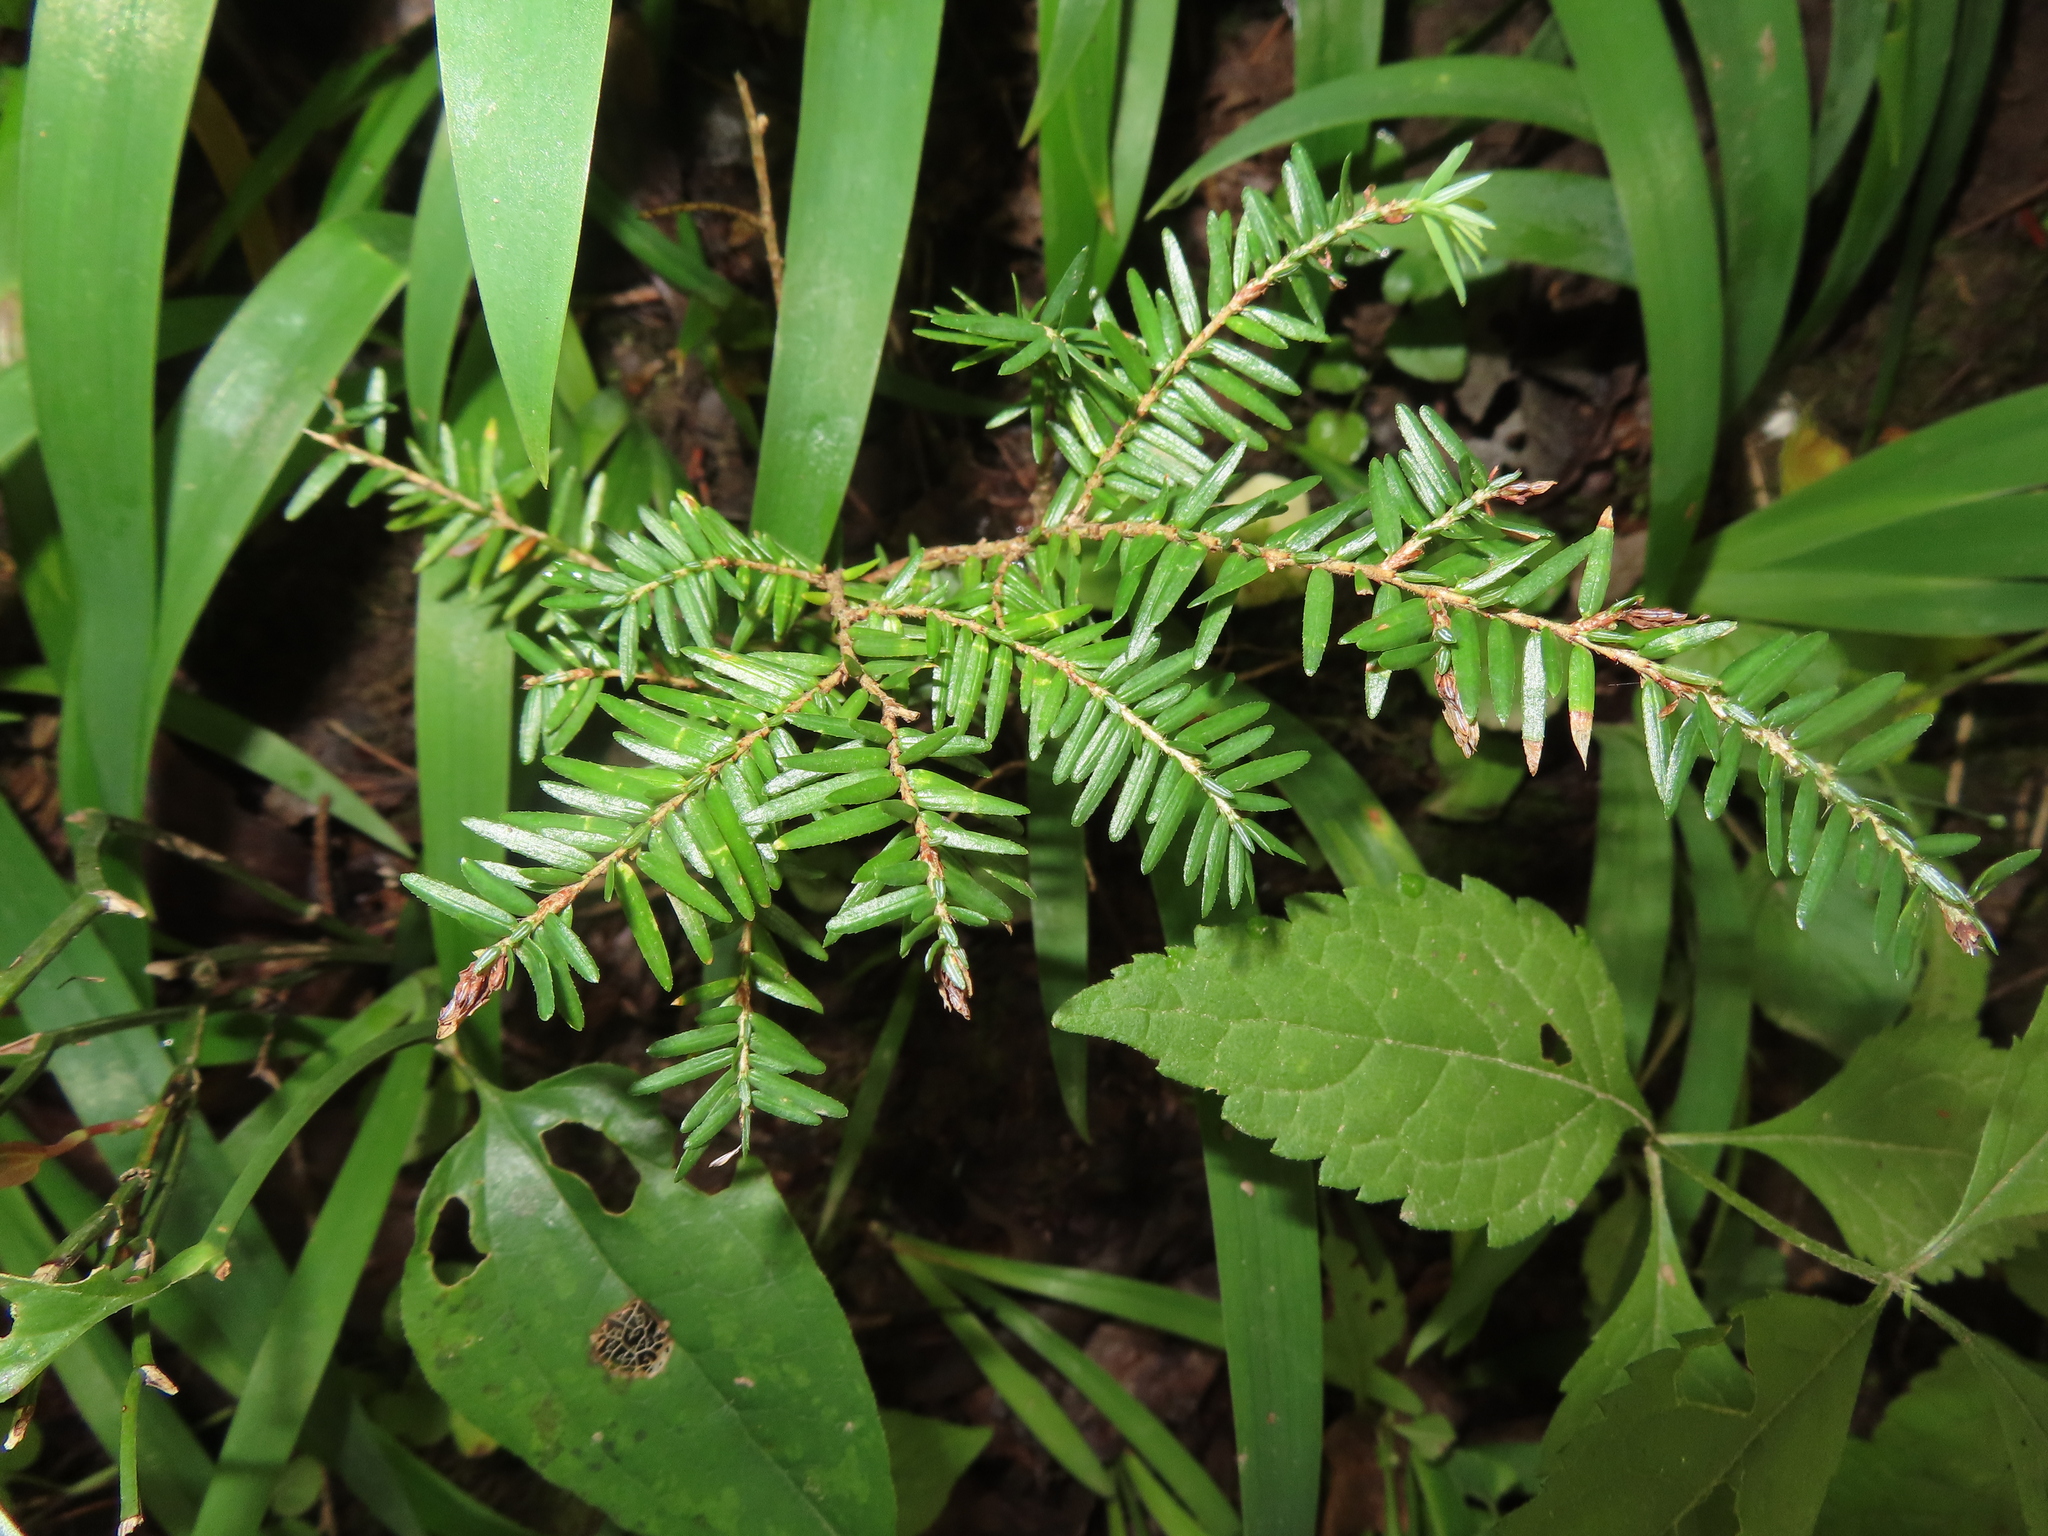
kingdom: Plantae
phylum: Tracheophyta
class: Pinopsida
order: Pinales
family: Pinaceae
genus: Tsuga
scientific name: Tsuga canadensis
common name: Eastern hemlock
